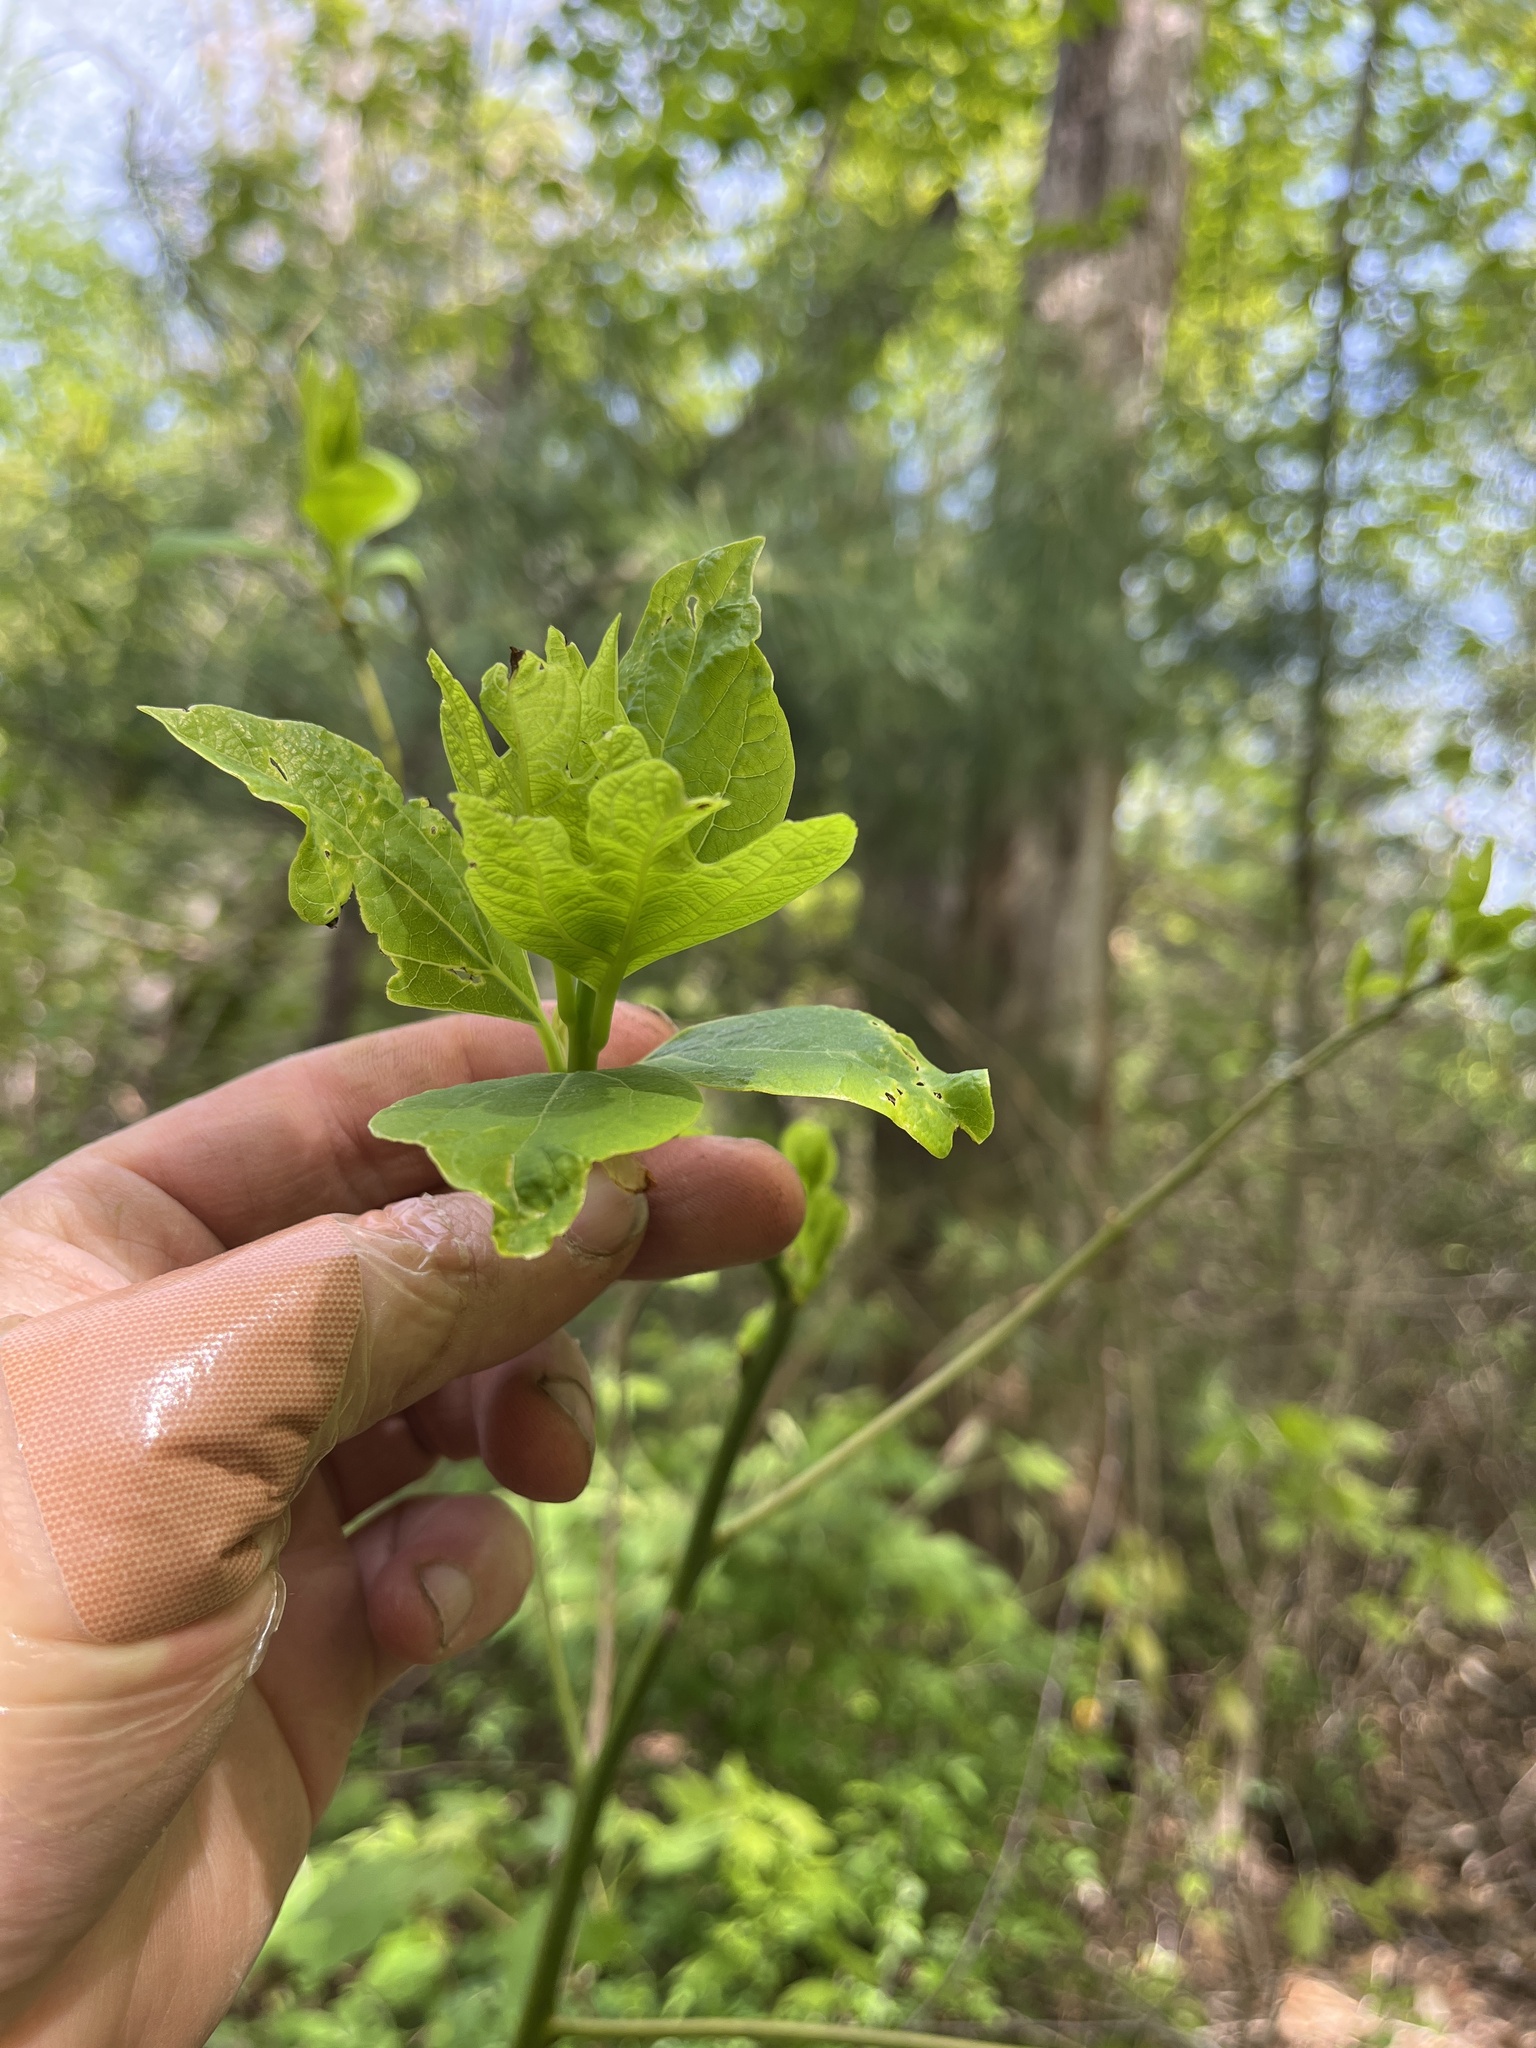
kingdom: Plantae
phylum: Tracheophyta
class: Magnoliopsida
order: Laurales
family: Lauraceae
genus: Sassafras
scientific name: Sassafras albidum
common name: Sassafras
